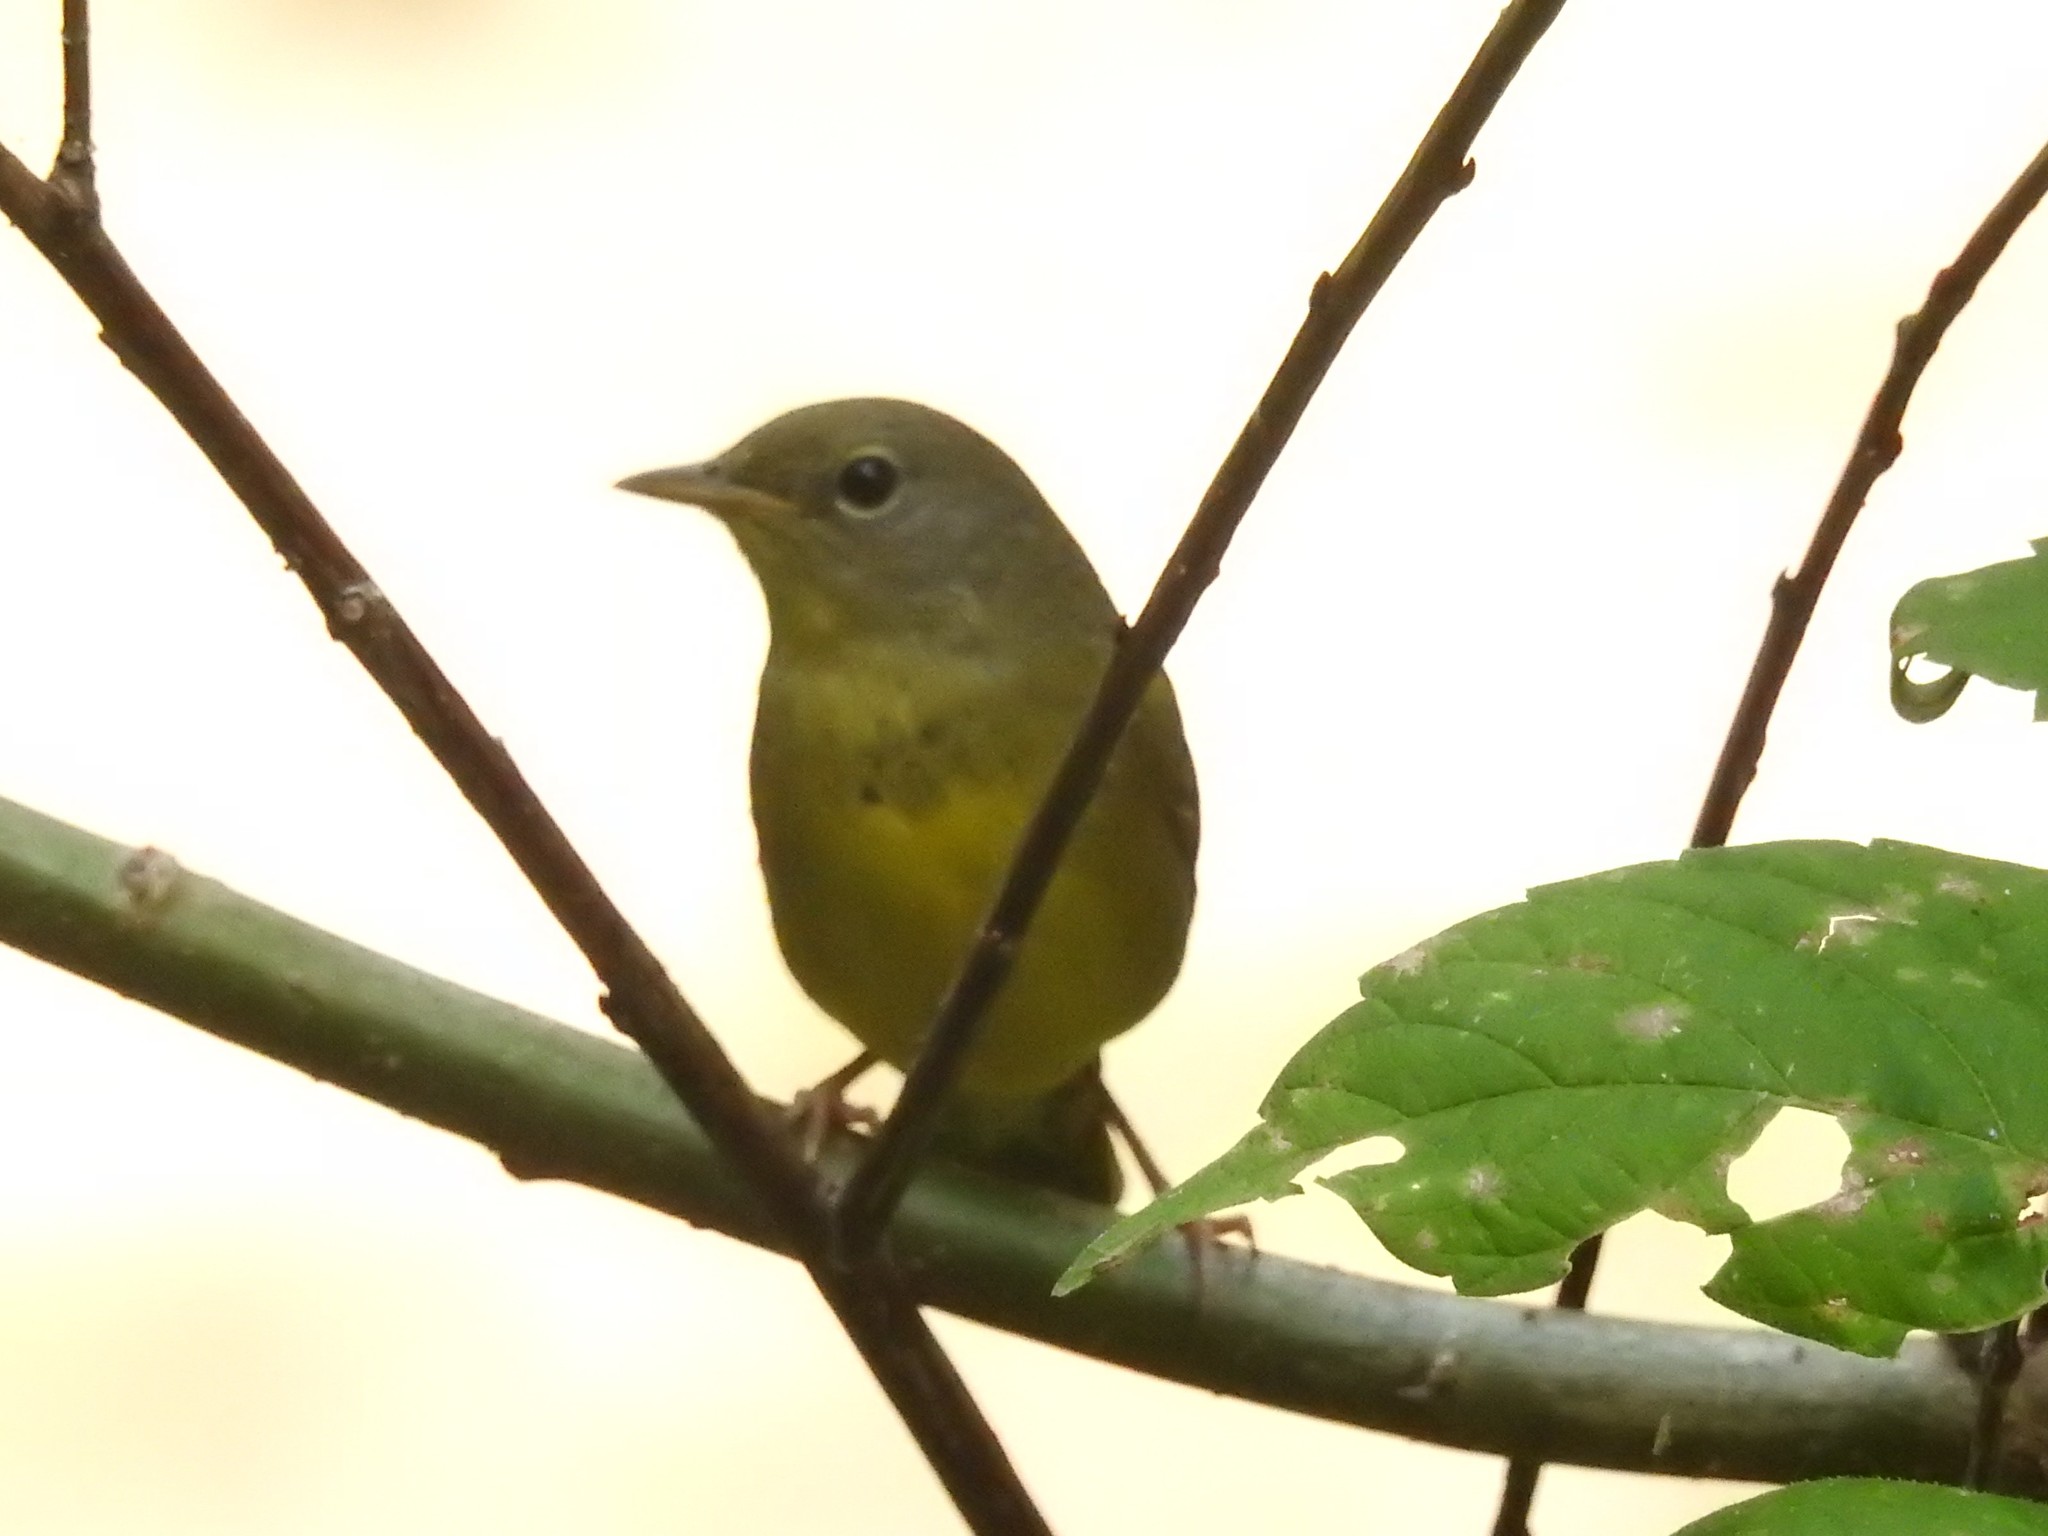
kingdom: Animalia
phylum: Chordata
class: Aves
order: Passeriformes
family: Parulidae
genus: Geothlypis
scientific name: Geothlypis philadelphia
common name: Mourning warbler
